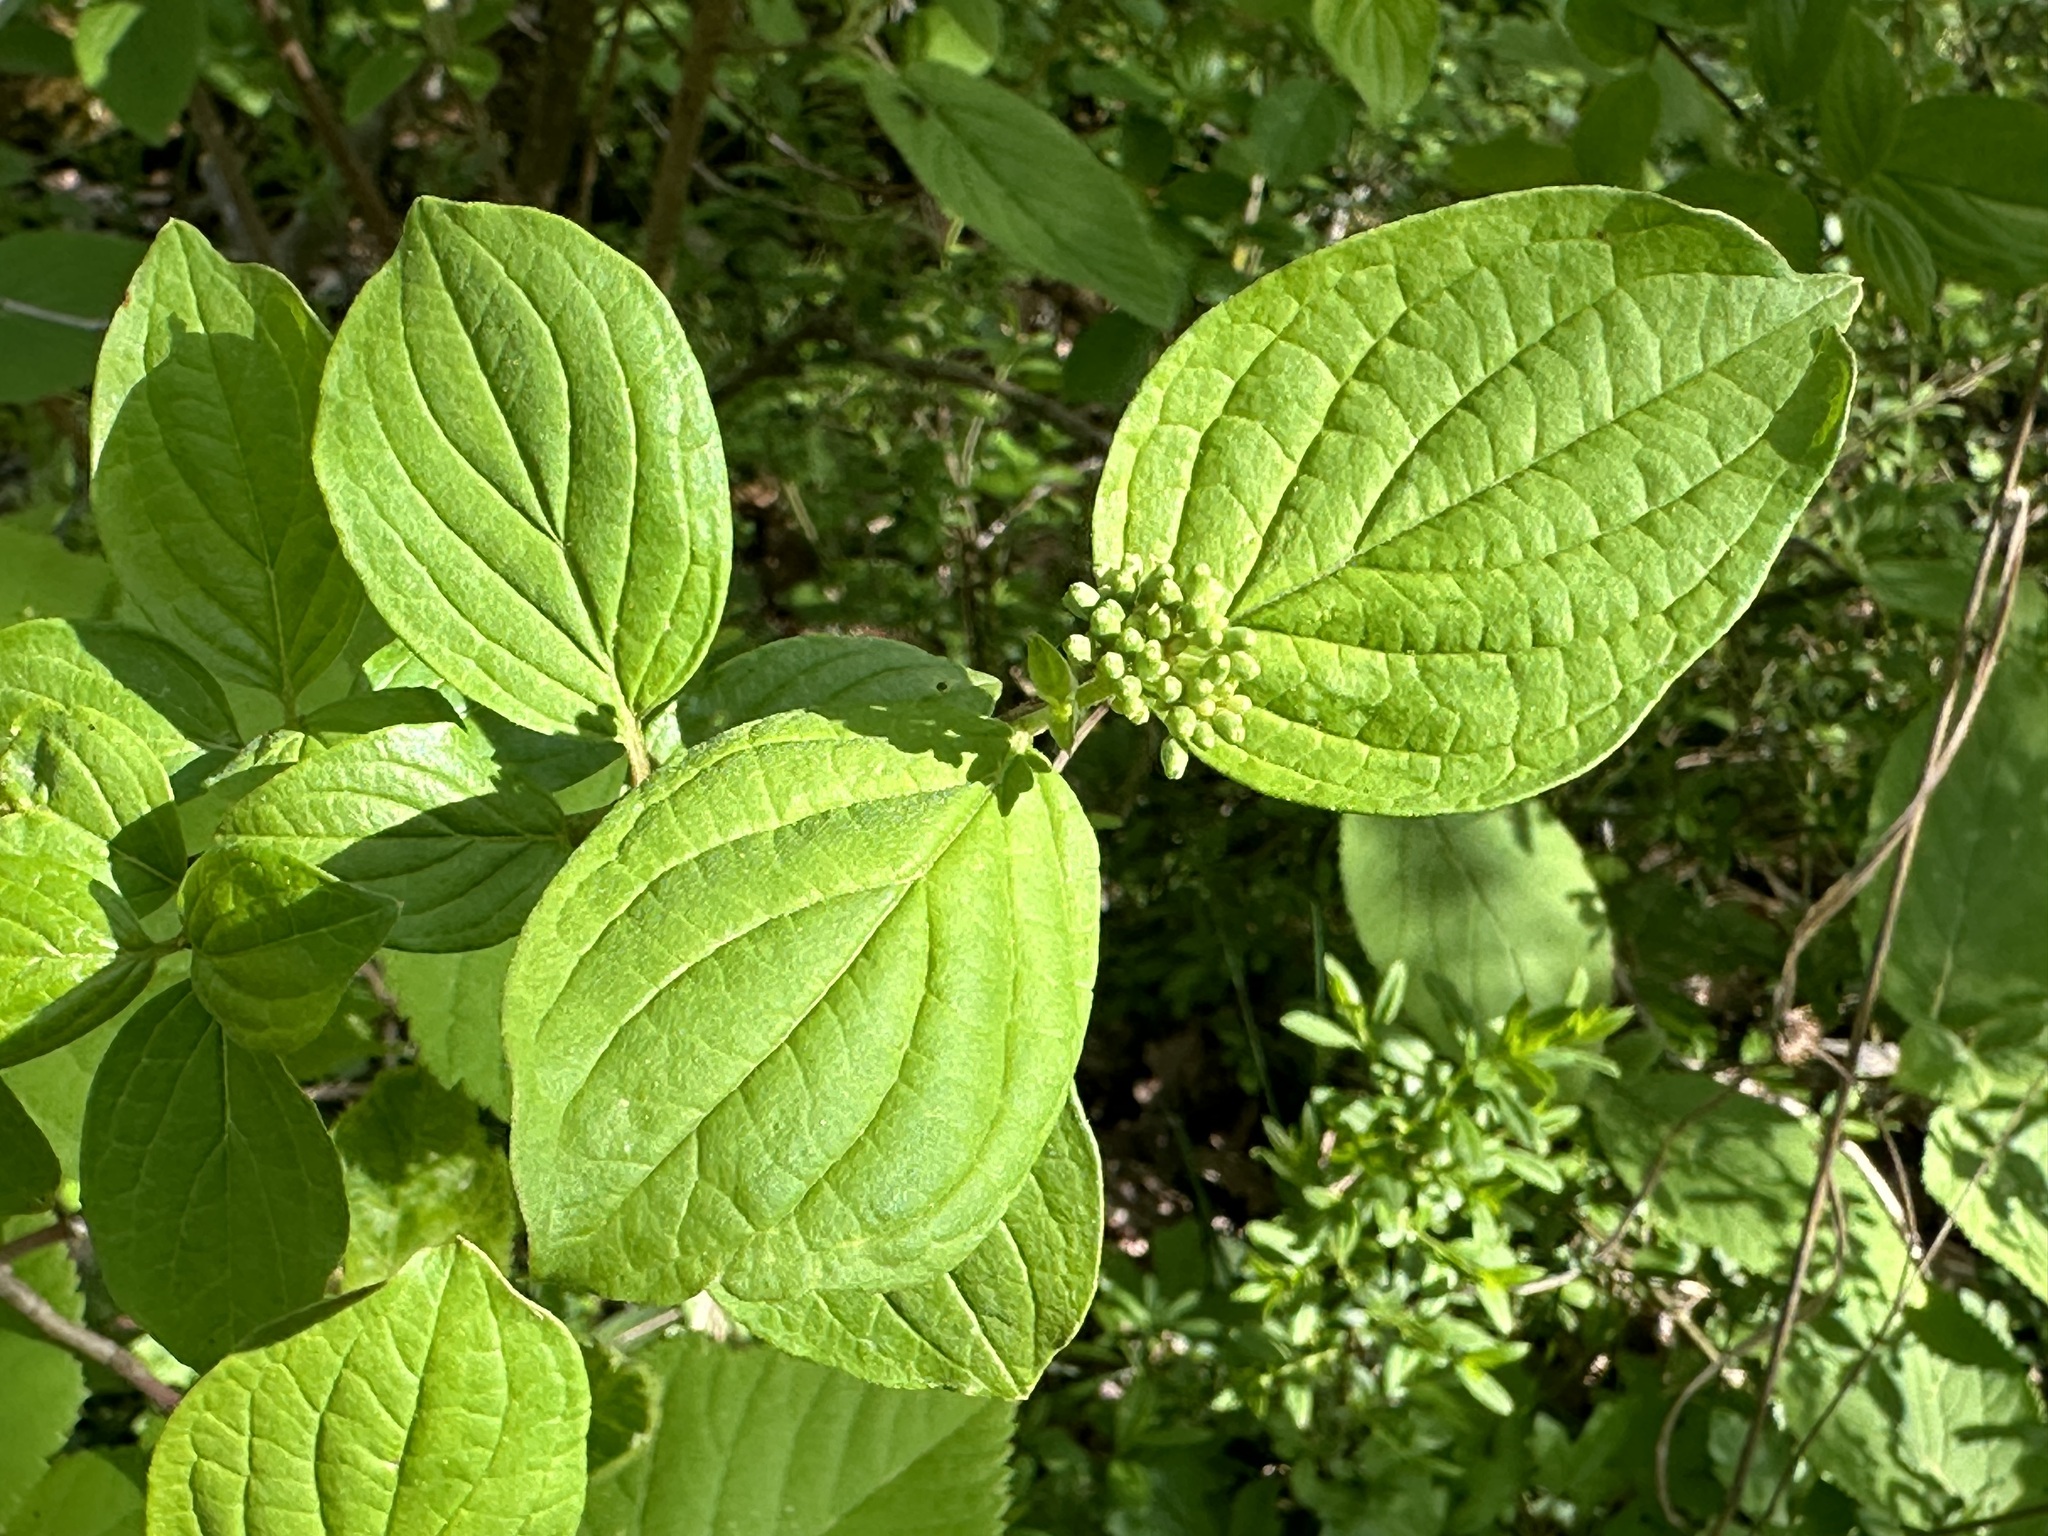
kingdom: Plantae
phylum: Tracheophyta
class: Magnoliopsida
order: Cornales
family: Cornaceae
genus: Cornus
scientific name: Cornus sanguinea
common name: Dogwood
